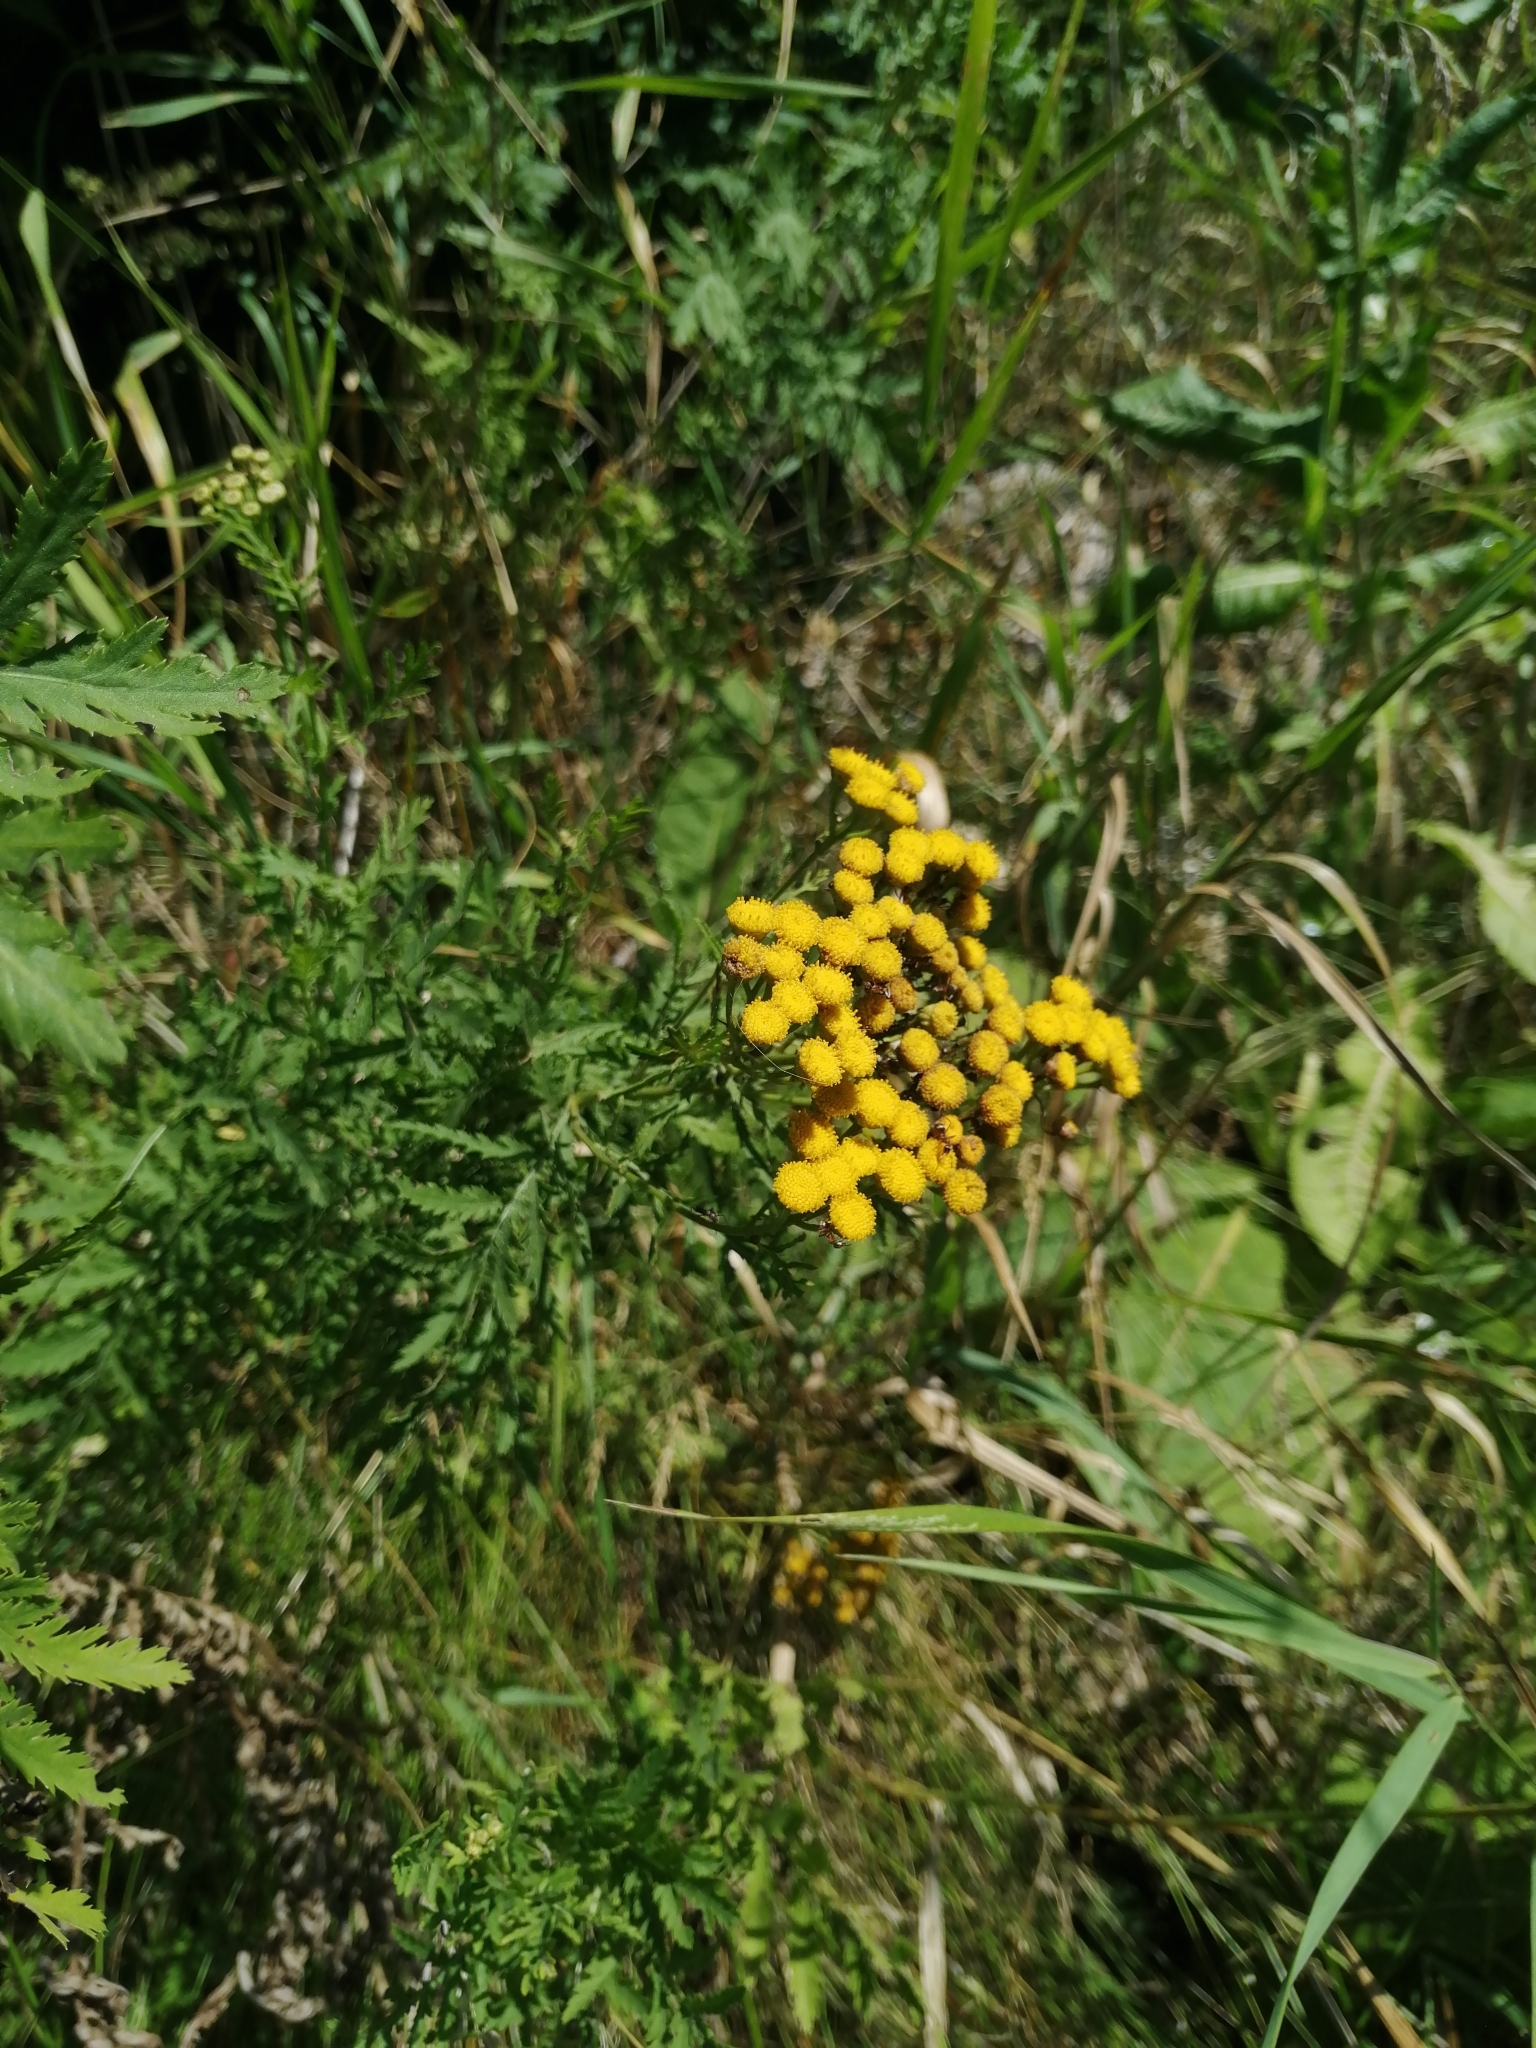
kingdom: Plantae
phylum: Tracheophyta
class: Magnoliopsida
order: Asterales
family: Asteraceae
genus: Tanacetum
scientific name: Tanacetum vulgare
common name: Common tansy
